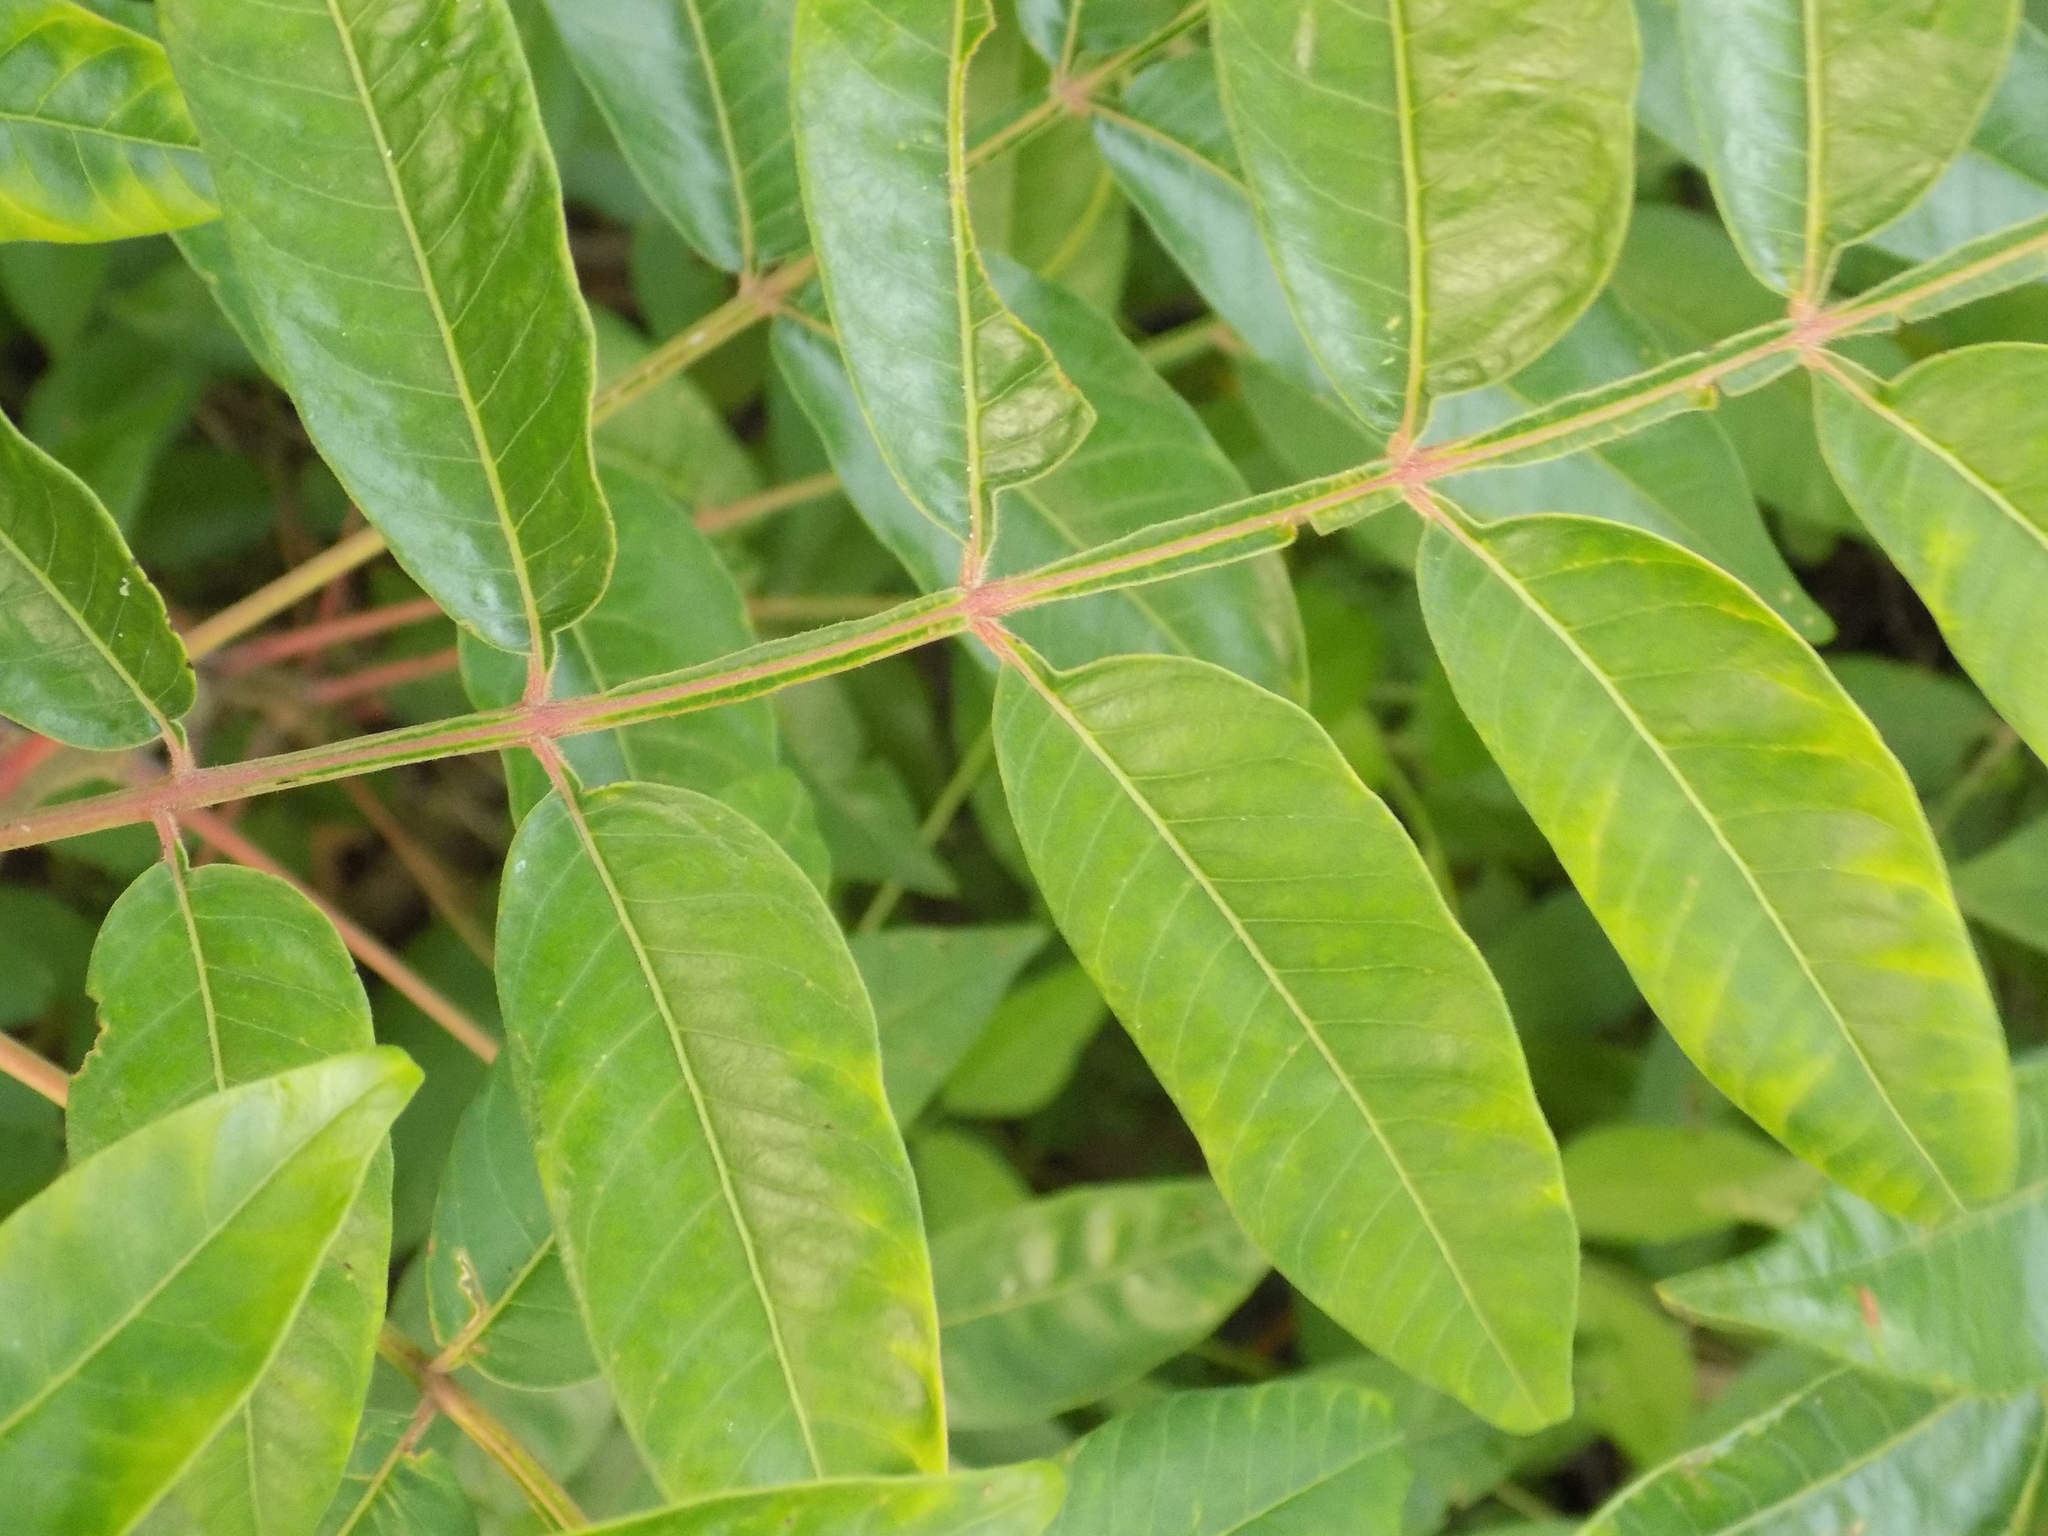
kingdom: Plantae
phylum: Tracheophyta
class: Magnoliopsida
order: Sapindales
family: Anacardiaceae
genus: Rhus
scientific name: Rhus copallina
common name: Shining sumac
